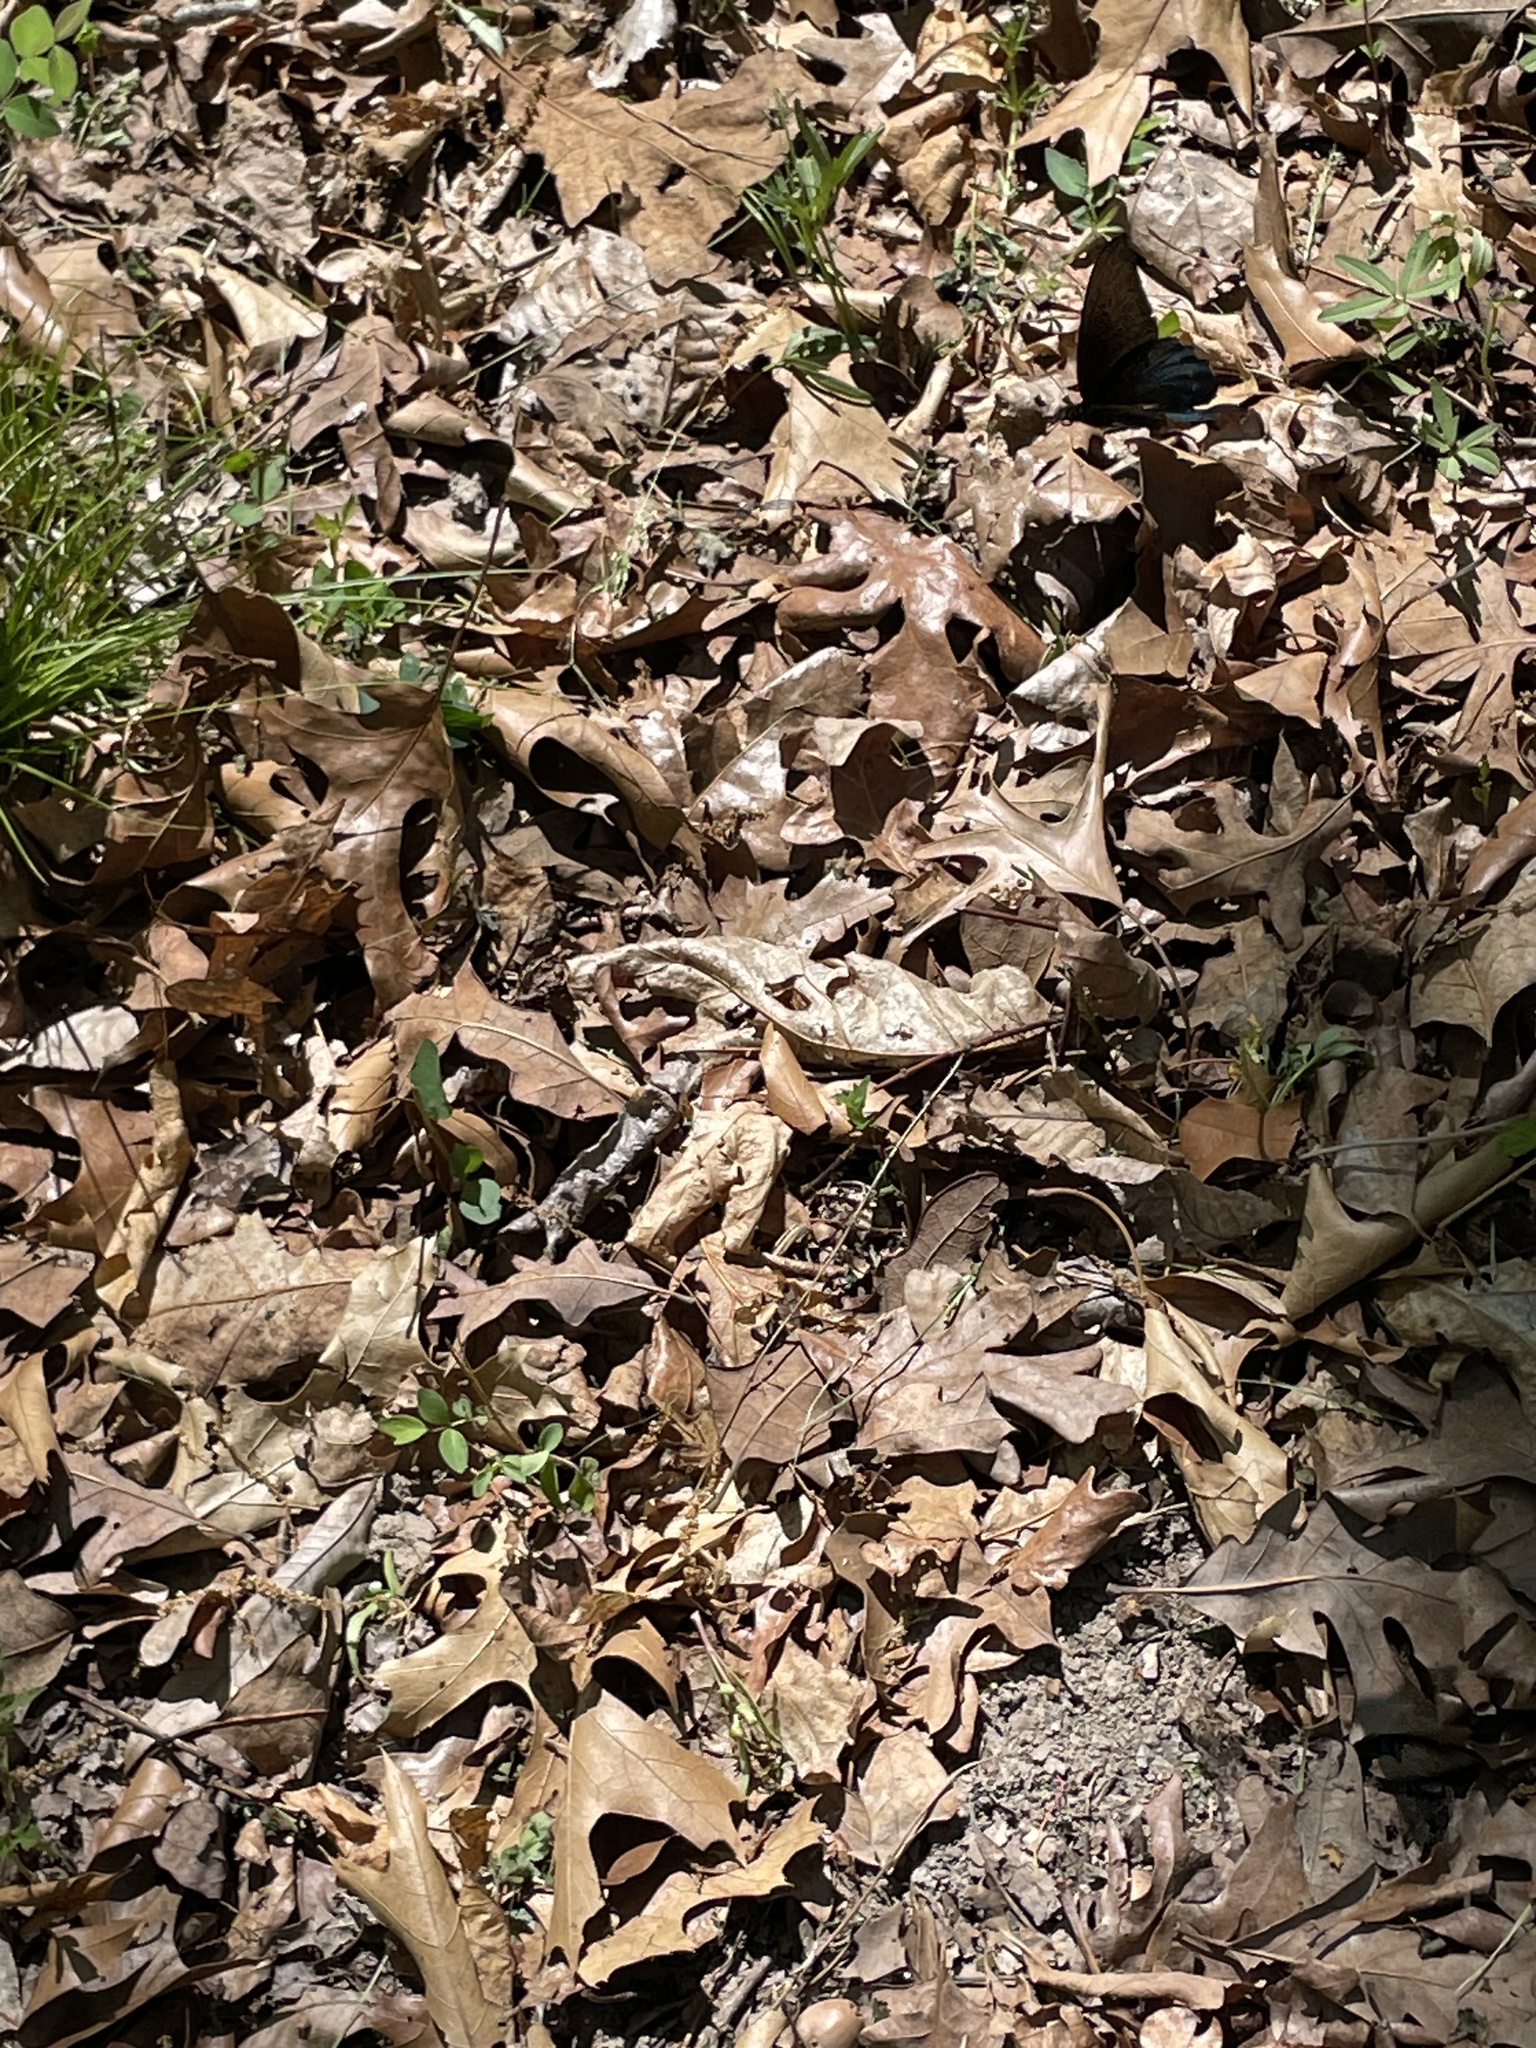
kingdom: Animalia
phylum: Arthropoda
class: Insecta
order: Lepidoptera
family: Papilionidae
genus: Battus
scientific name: Battus philenor
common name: Pipevine swallowtail
